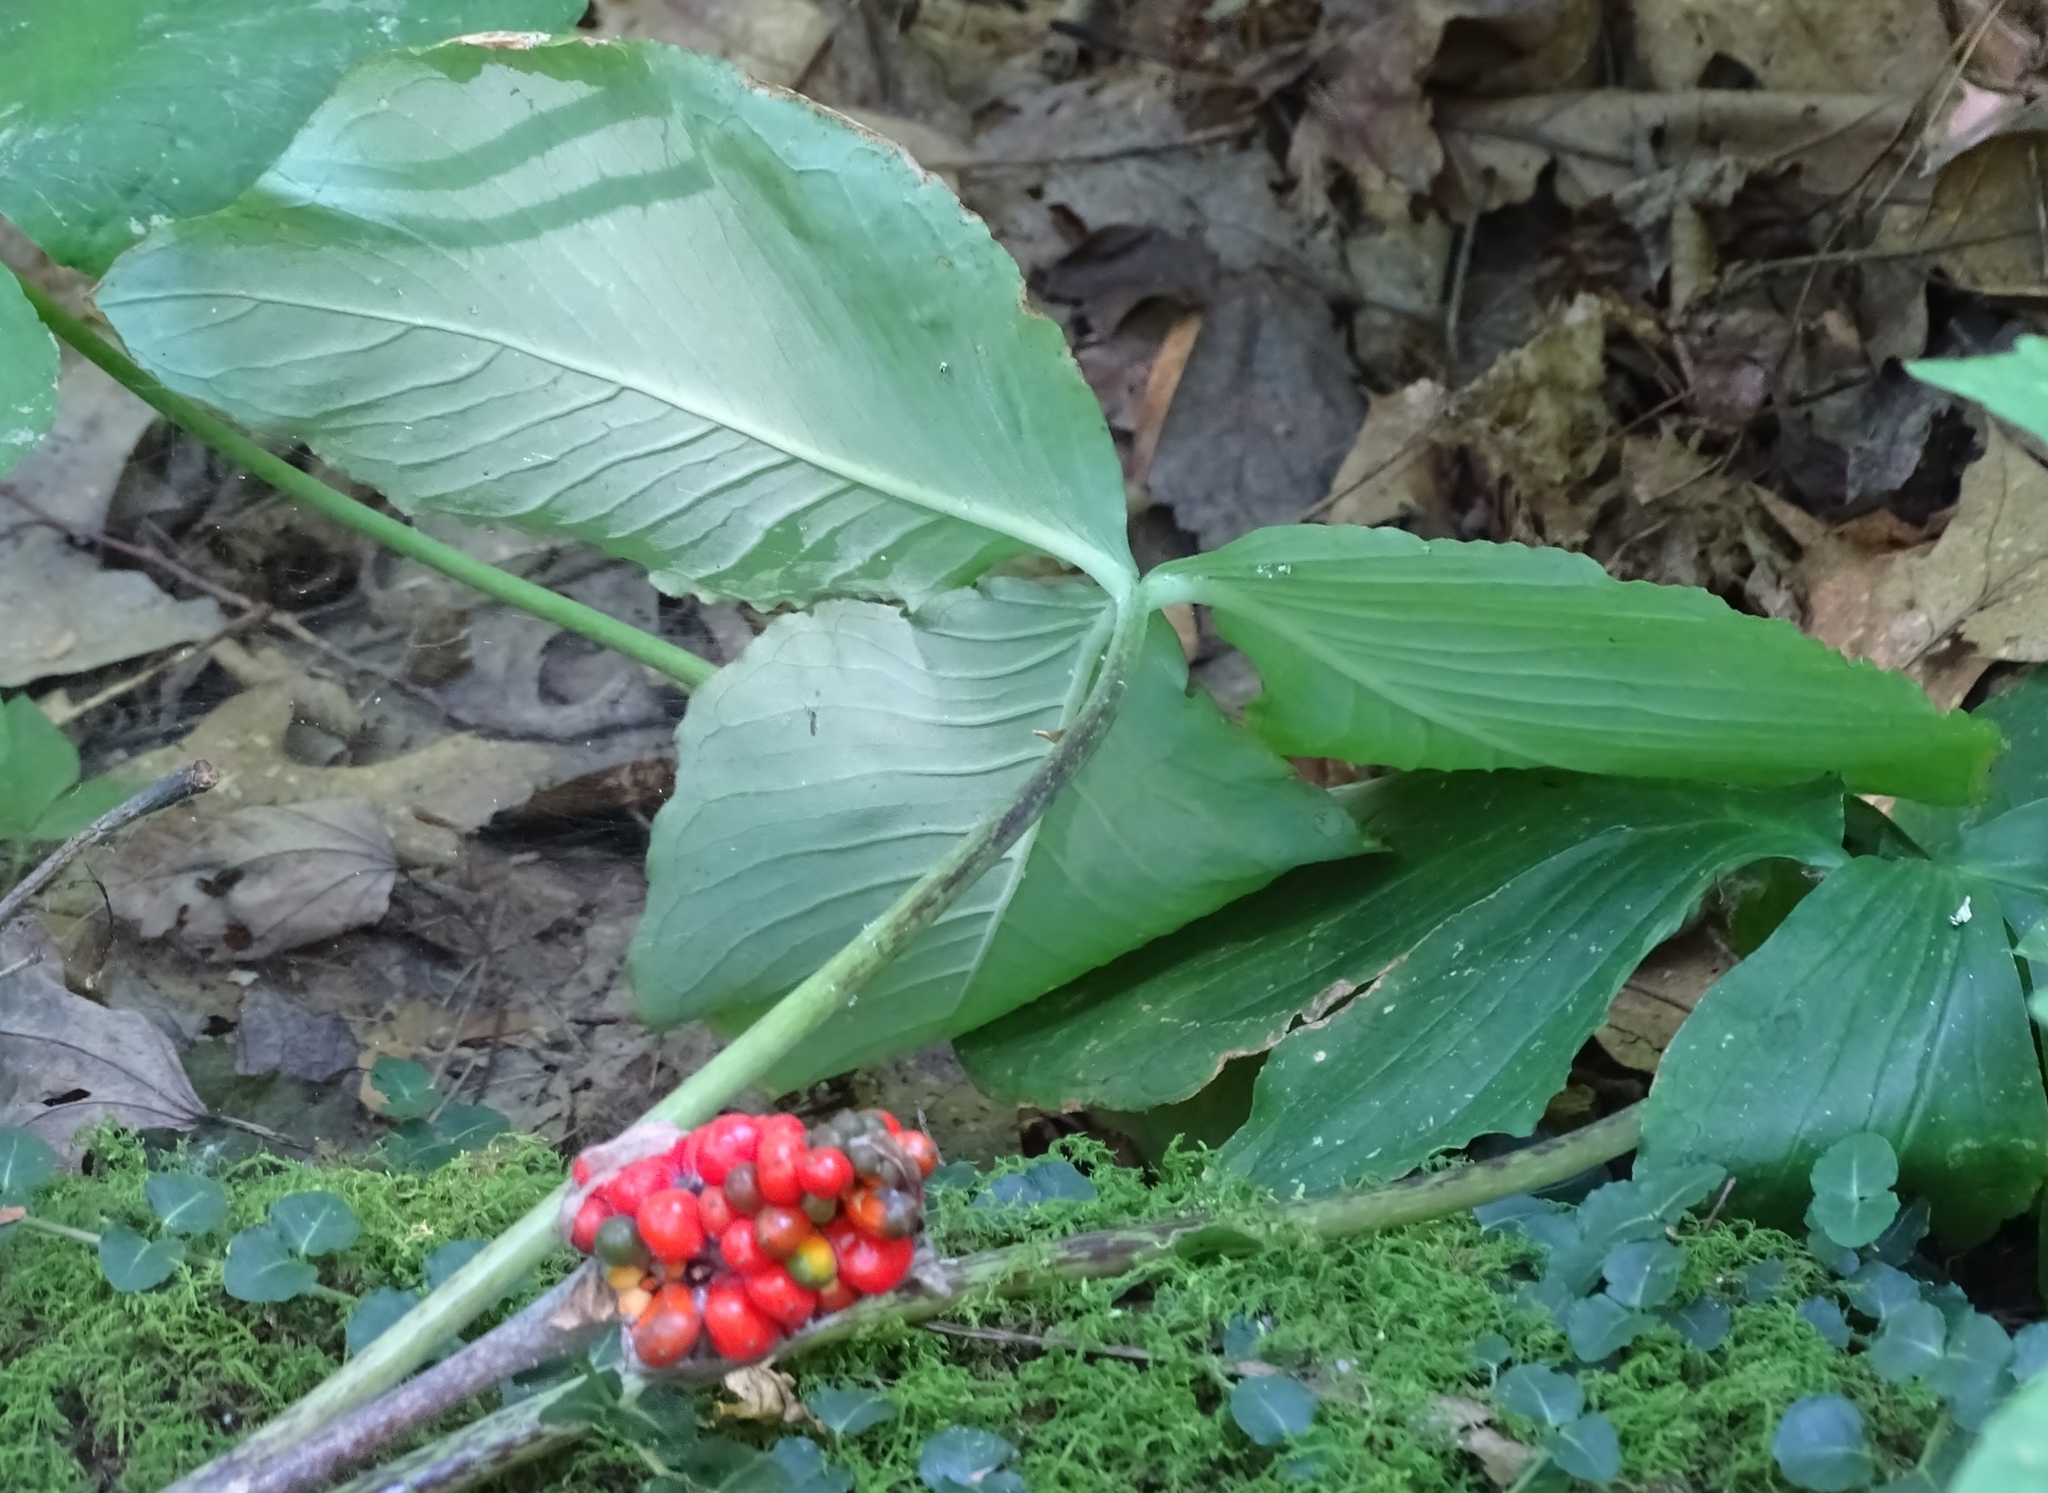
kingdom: Plantae
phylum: Tracheophyta
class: Liliopsida
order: Alismatales
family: Araceae
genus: Arisaema
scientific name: Arisaema triphyllum
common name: Jack-in-the-pulpit
